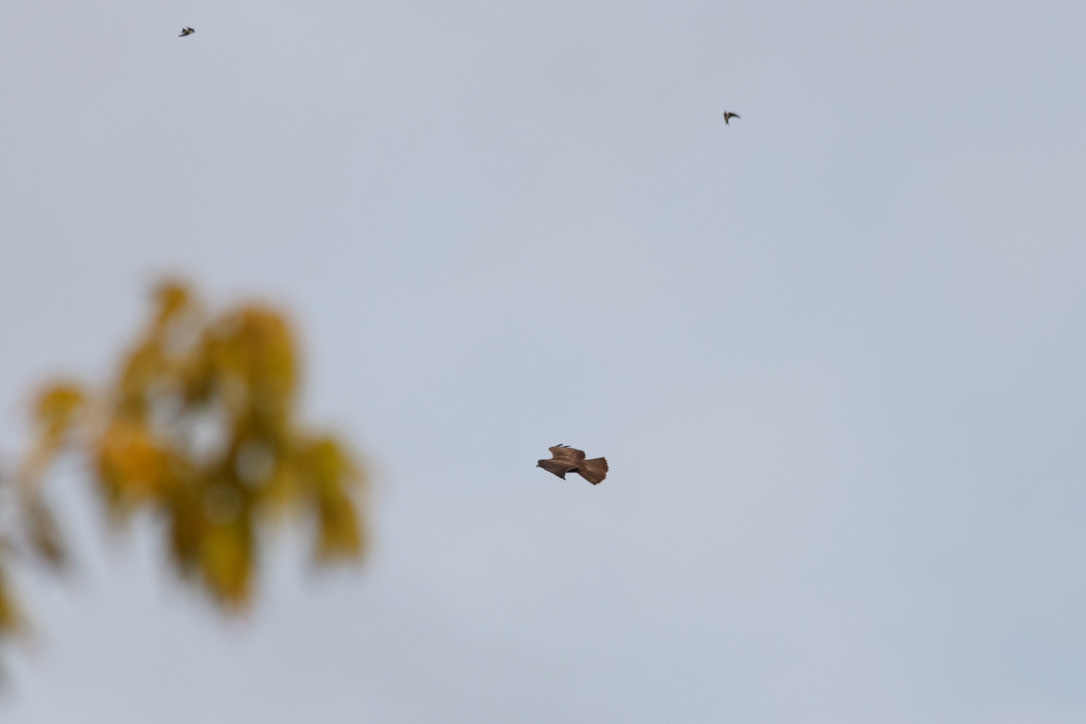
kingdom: Animalia
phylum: Chordata
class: Aves
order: Accipitriformes
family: Accipitridae
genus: Buteo
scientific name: Buteo buteo
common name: Common buzzard
